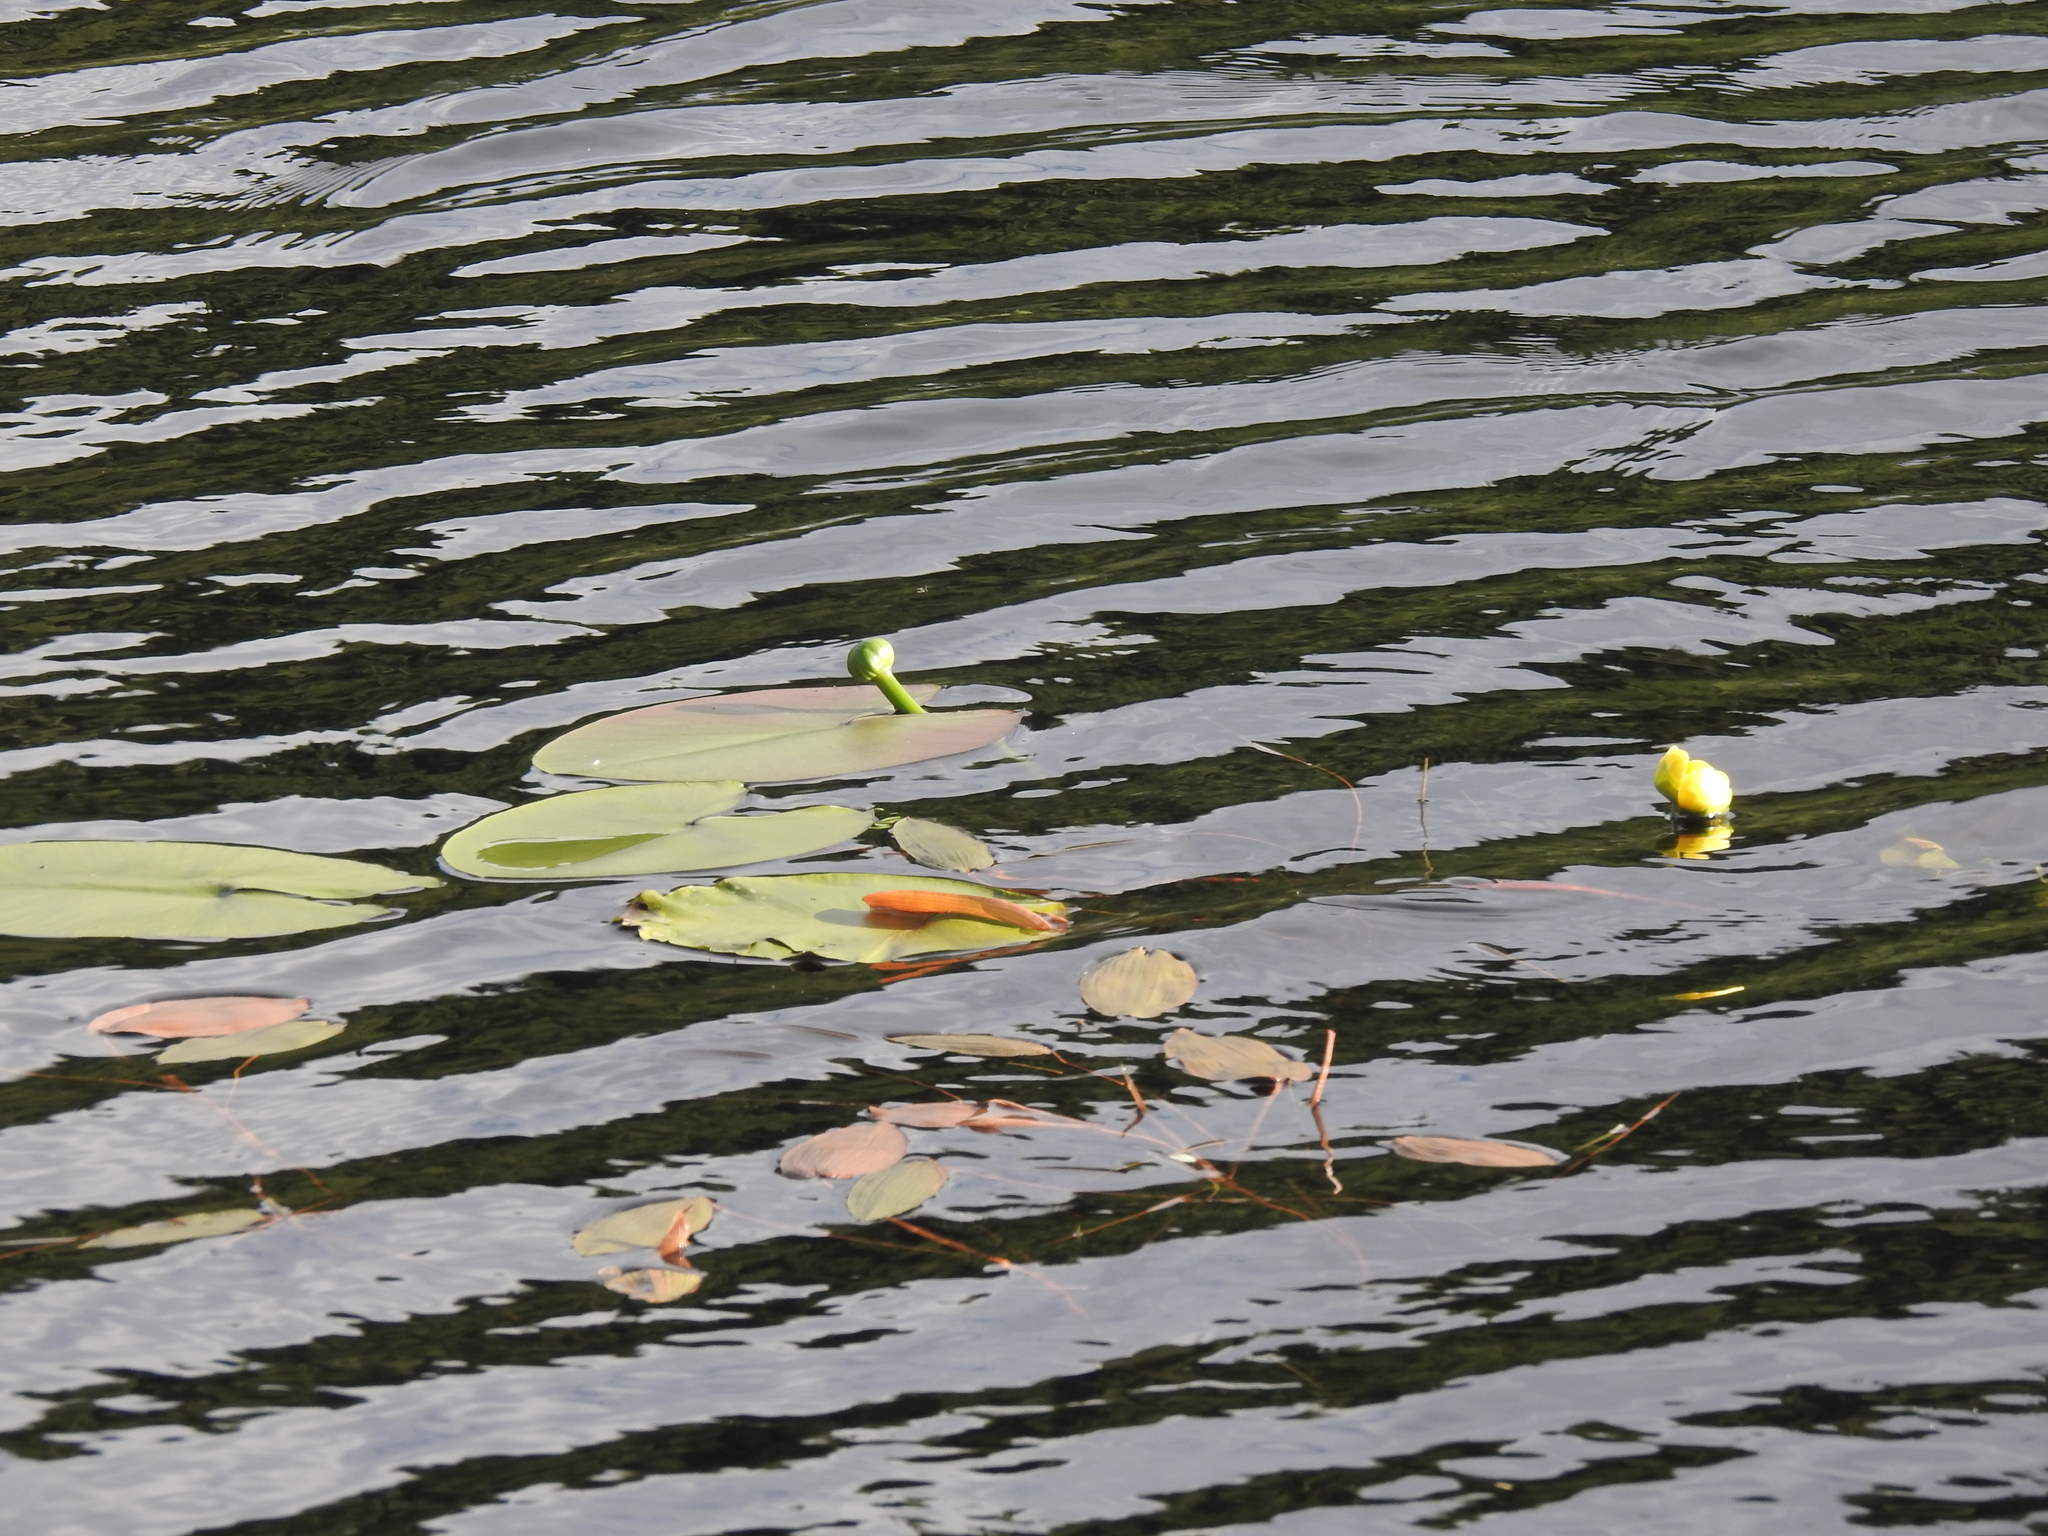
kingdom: Plantae
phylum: Tracheophyta
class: Magnoliopsida
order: Nymphaeales
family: Nymphaeaceae
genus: Nuphar
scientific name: Nuphar lutea
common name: Yellow water-lily
